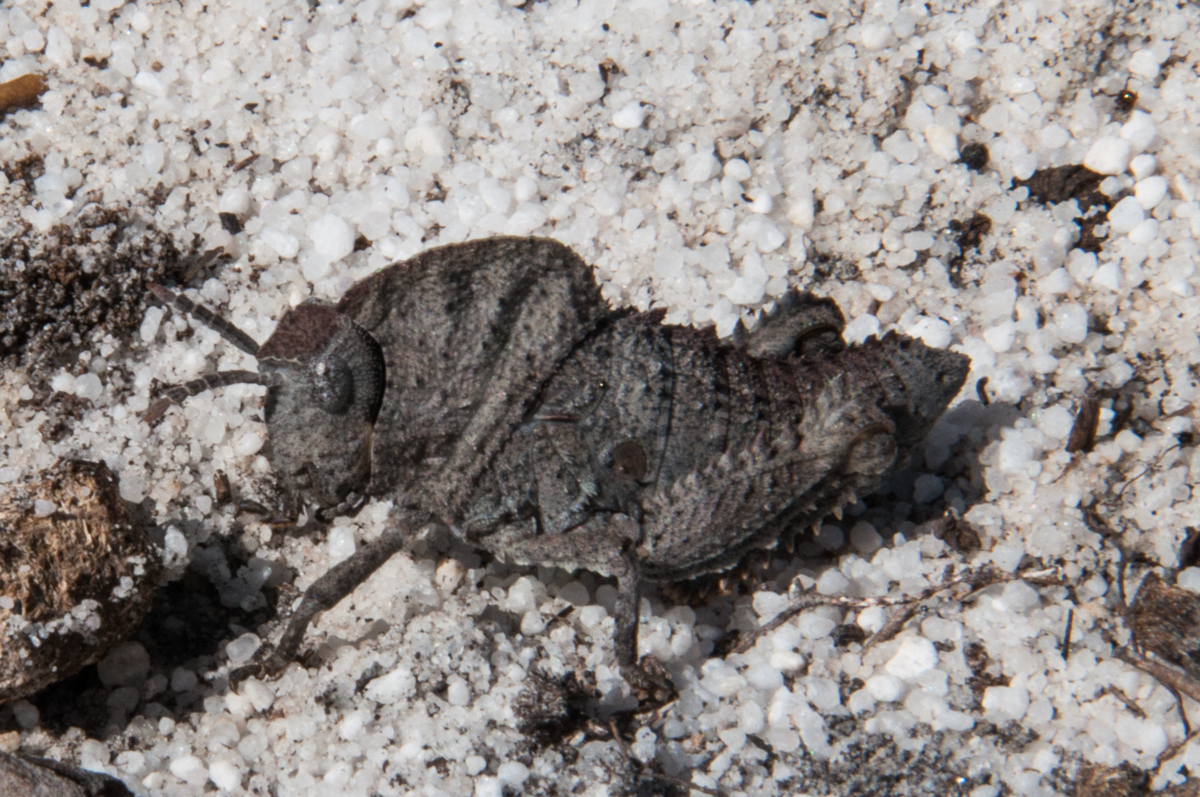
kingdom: Animalia
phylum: Arthropoda
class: Insecta
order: Orthoptera
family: Pamphagidae
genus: Porthetis
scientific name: Porthetis carinata
